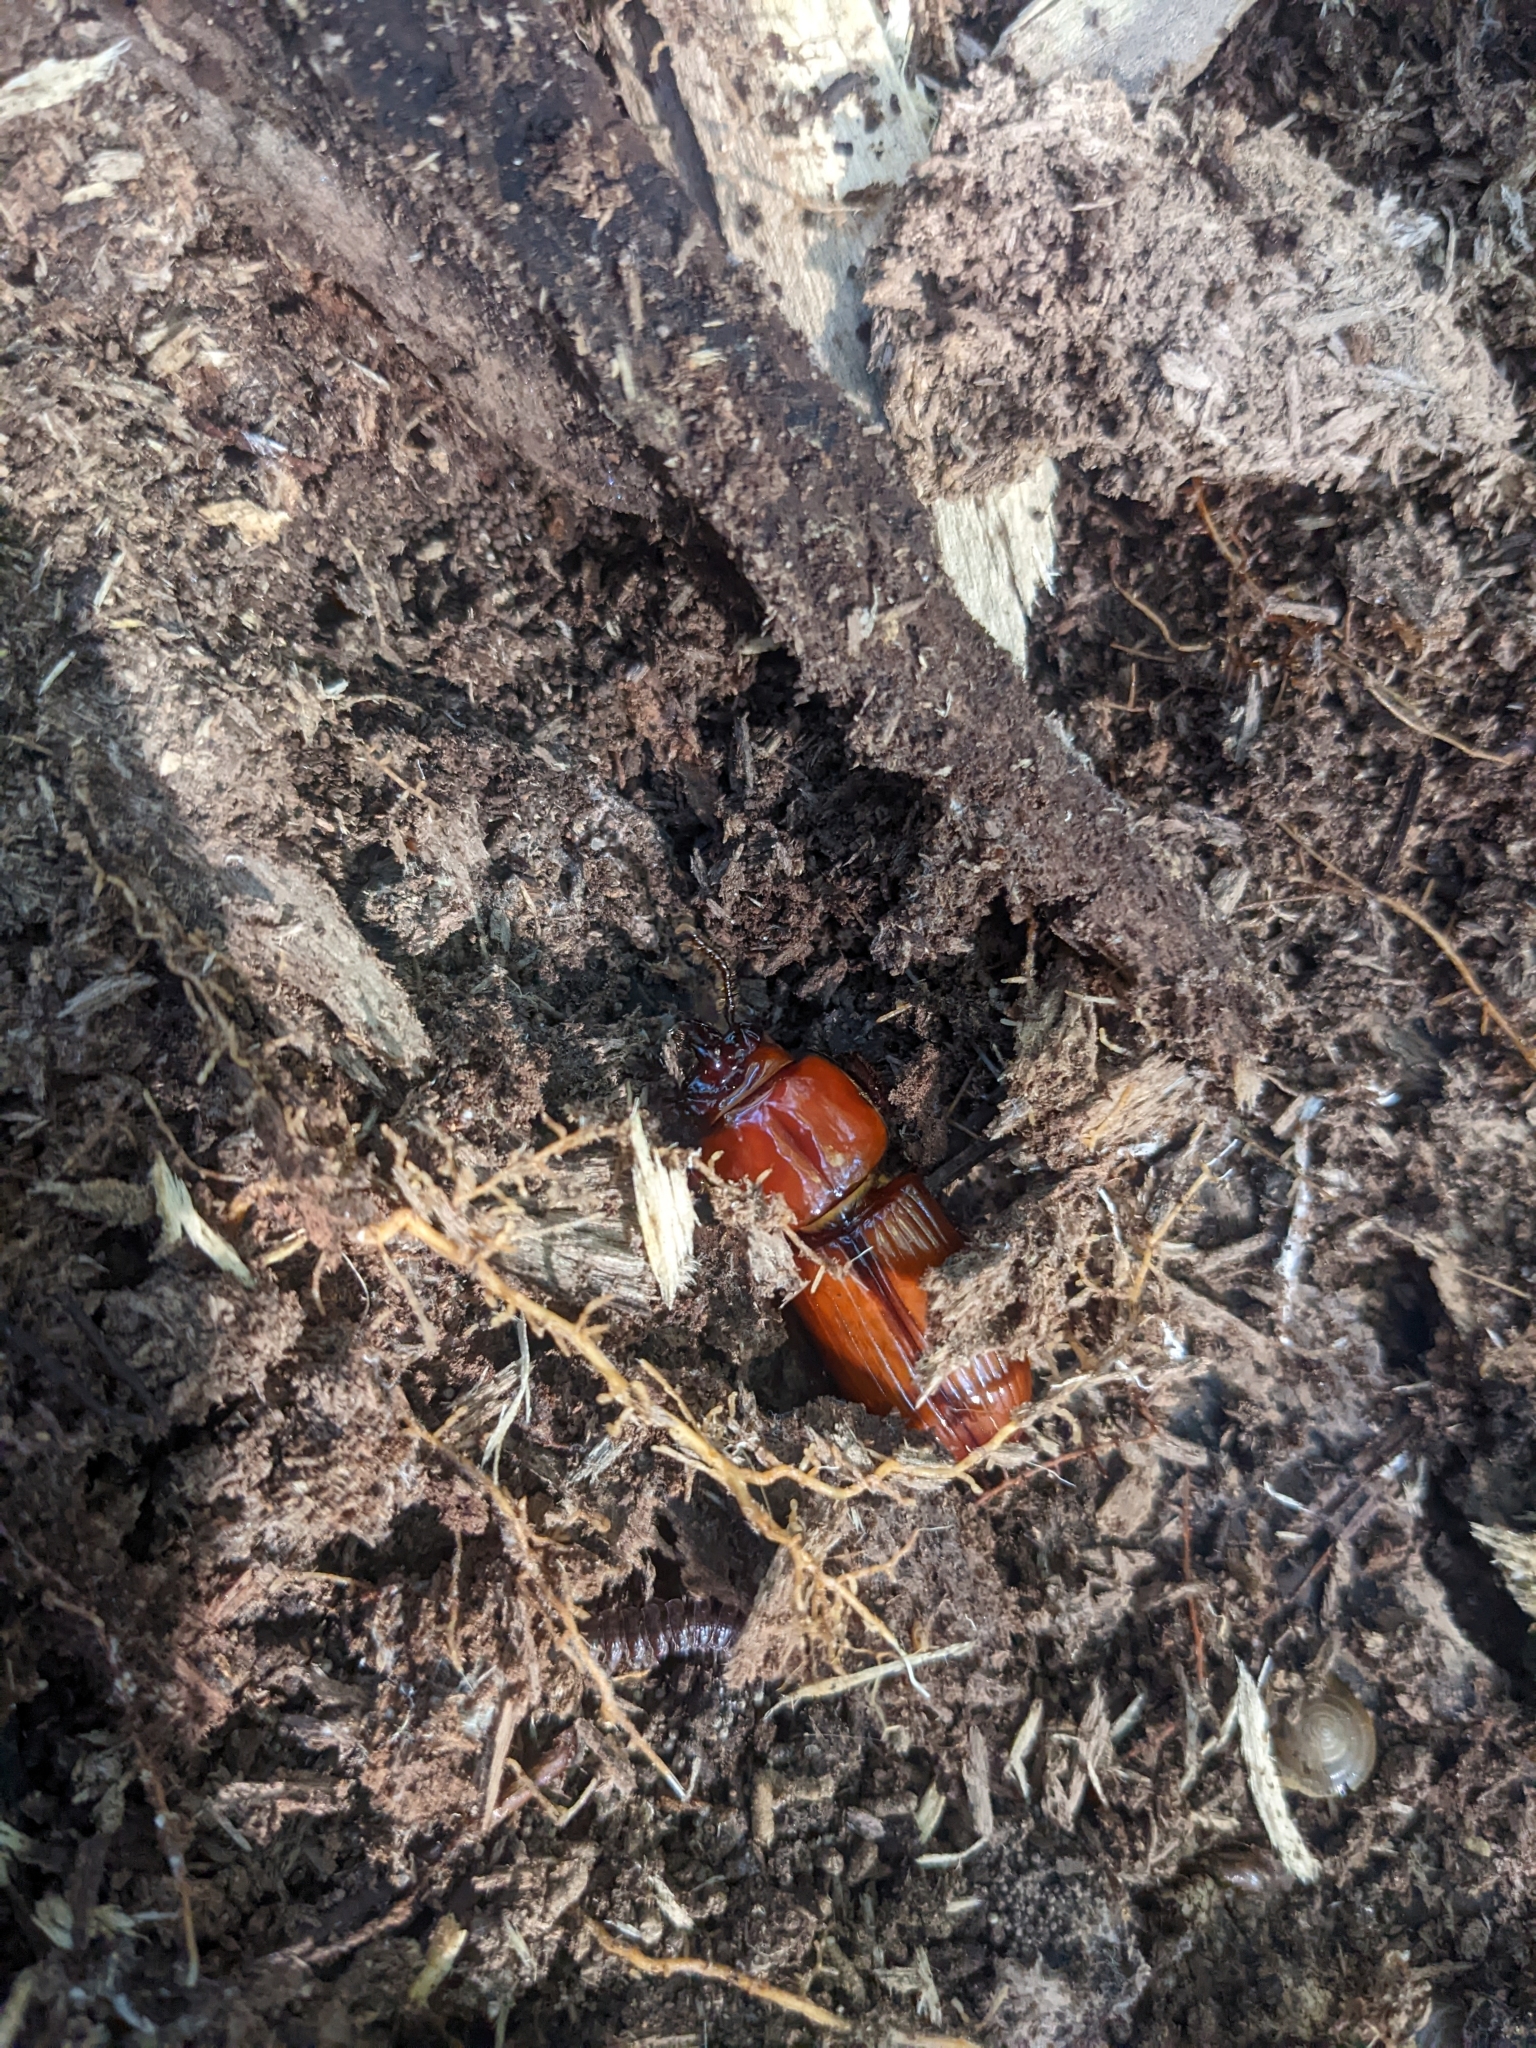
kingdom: Animalia
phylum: Arthropoda
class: Insecta
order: Coleoptera
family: Passalidae
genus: Odontotaenius
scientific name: Odontotaenius disjunctus
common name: Patent leather beetle
